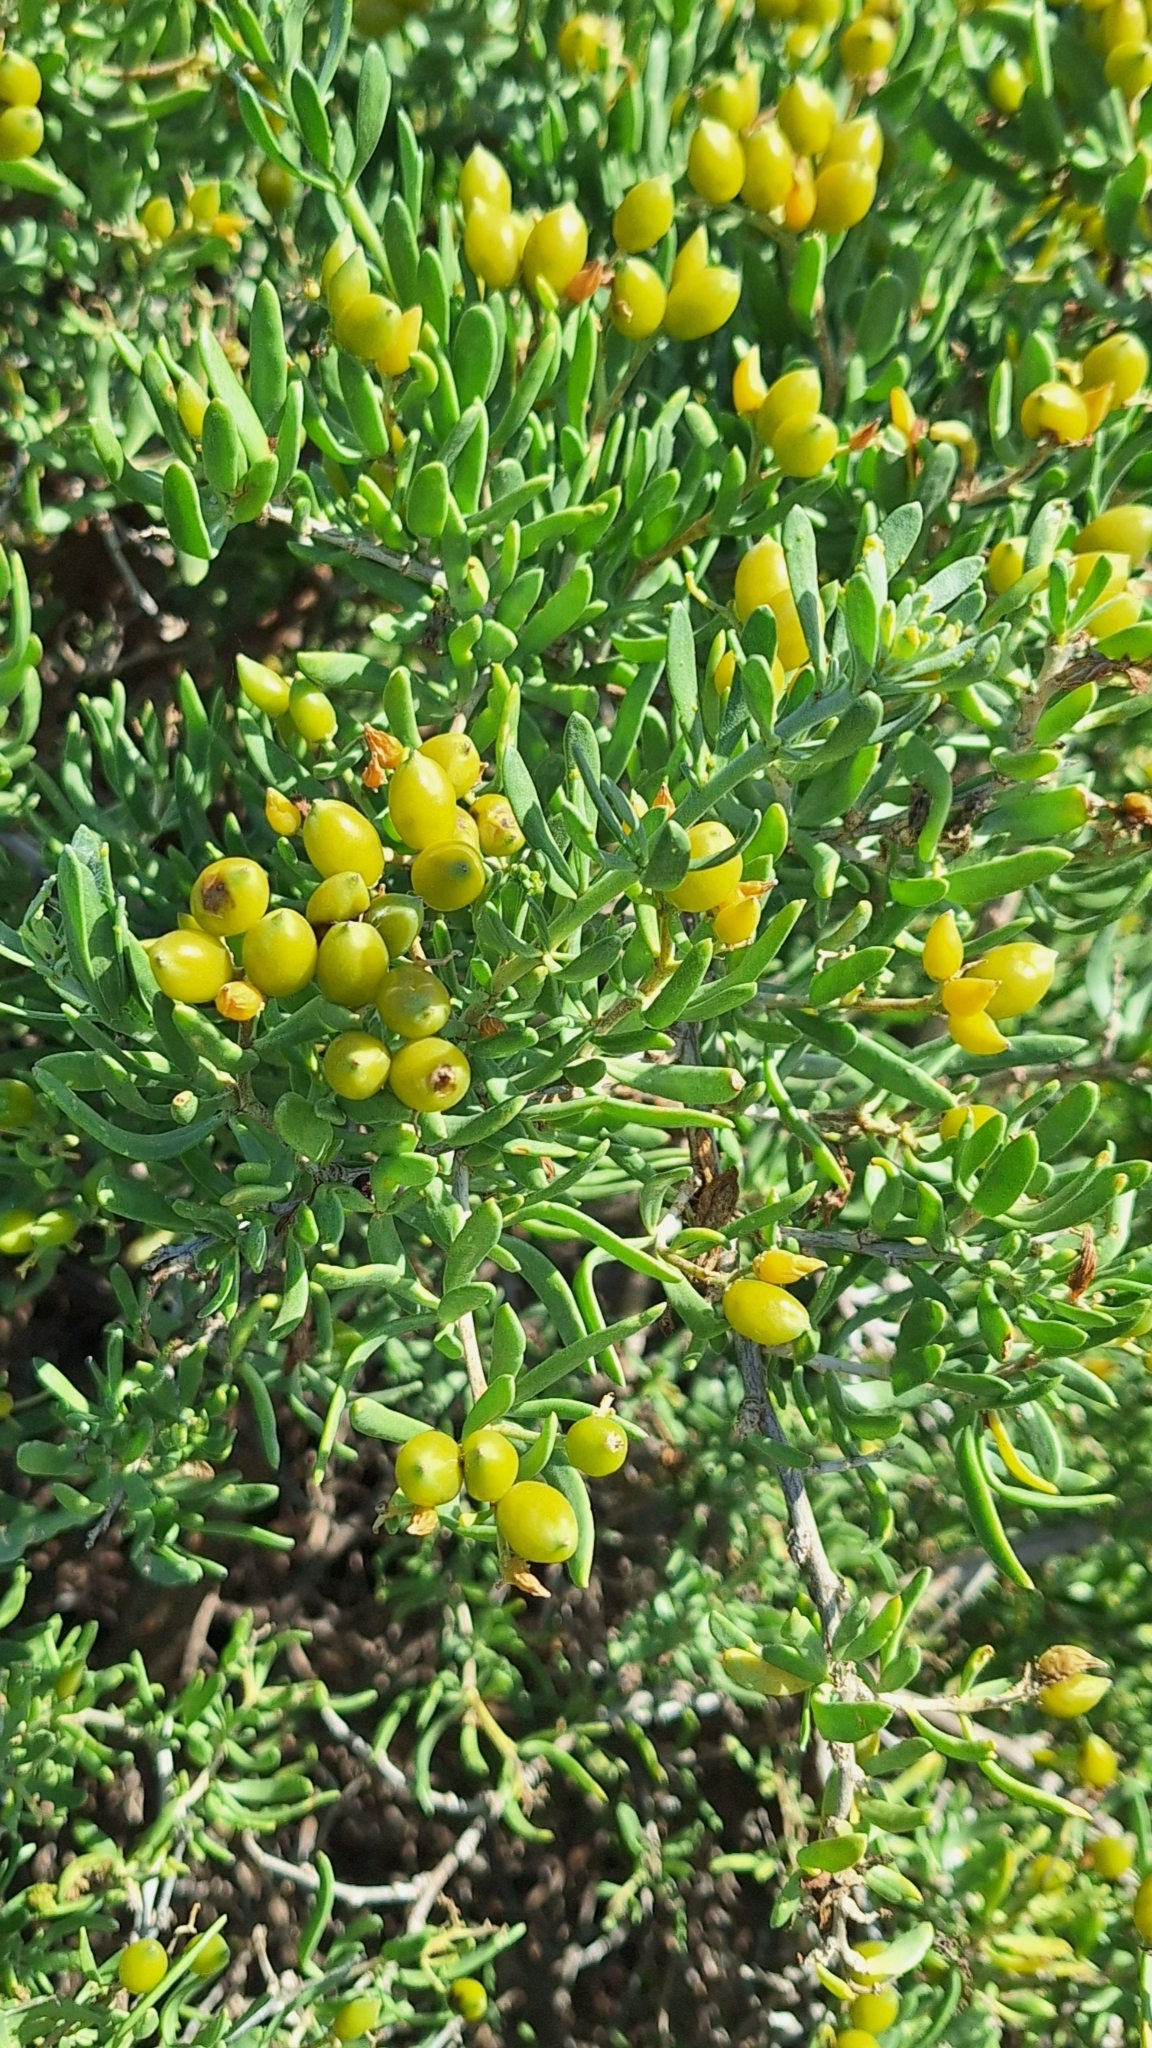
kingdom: Plantae
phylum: Tracheophyta
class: Magnoliopsida
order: Sapindales
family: Nitrariaceae
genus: Nitraria
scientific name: Nitraria billardierei
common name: Dillonbush
